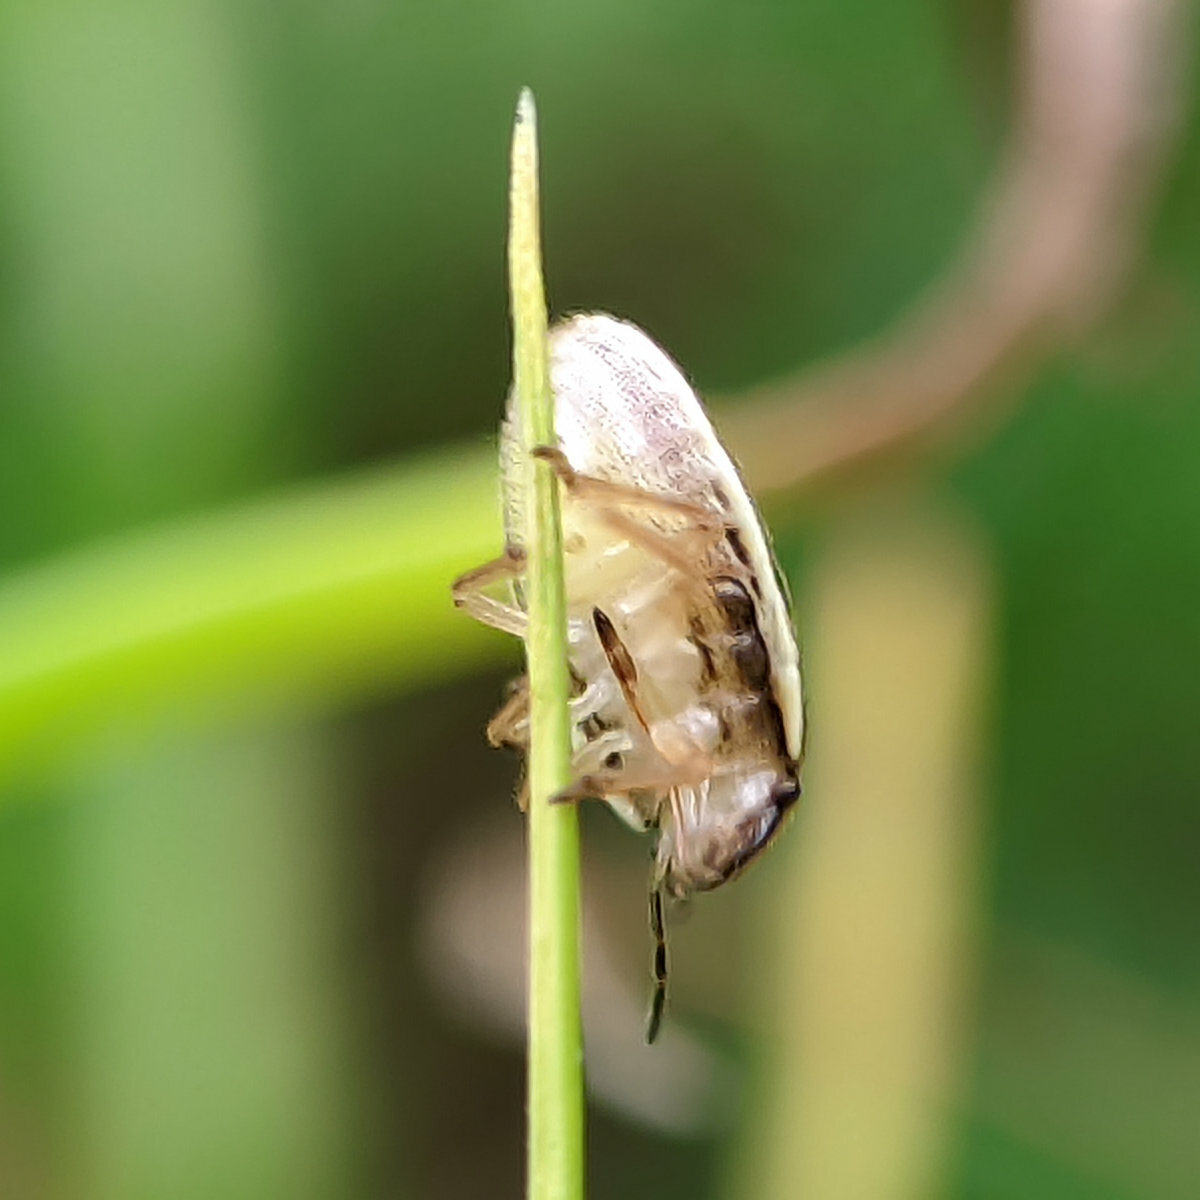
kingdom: Animalia
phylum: Arthropoda
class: Insecta
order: Hemiptera
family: Pentatomidae
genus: Aelia
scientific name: Aelia acuminata
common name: Bishop's mitre
